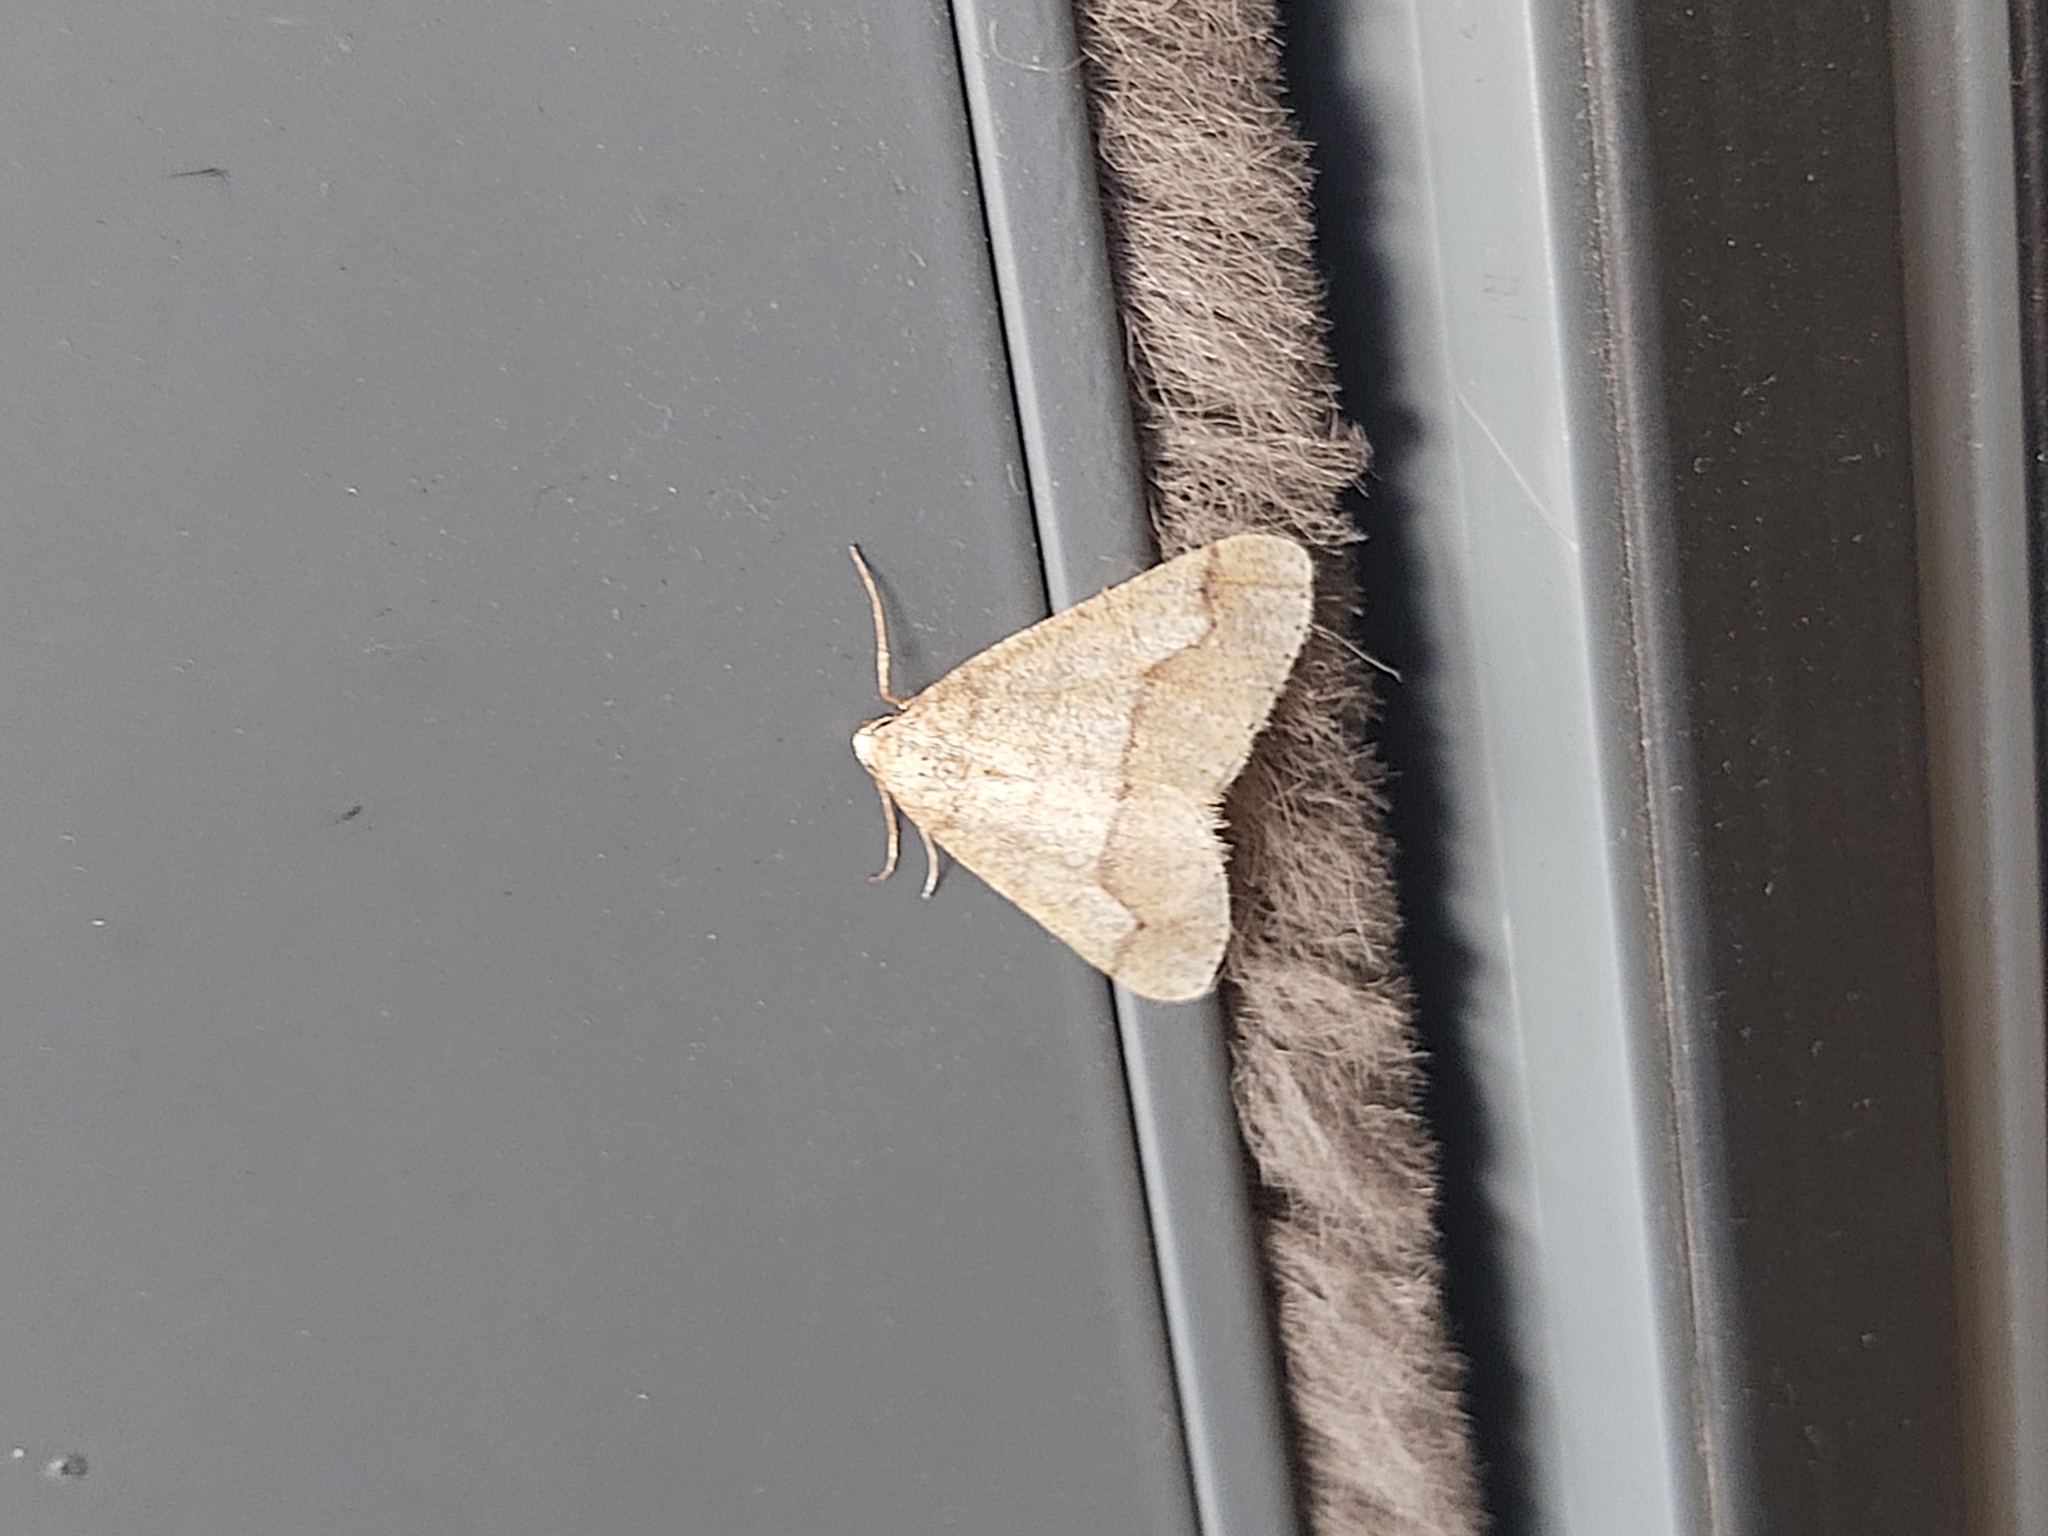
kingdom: Animalia
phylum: Arthropoda
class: Insecta
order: Lepidoptera
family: Geometridae
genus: Agriopis
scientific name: Agriopis marginaria
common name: Dotted border
